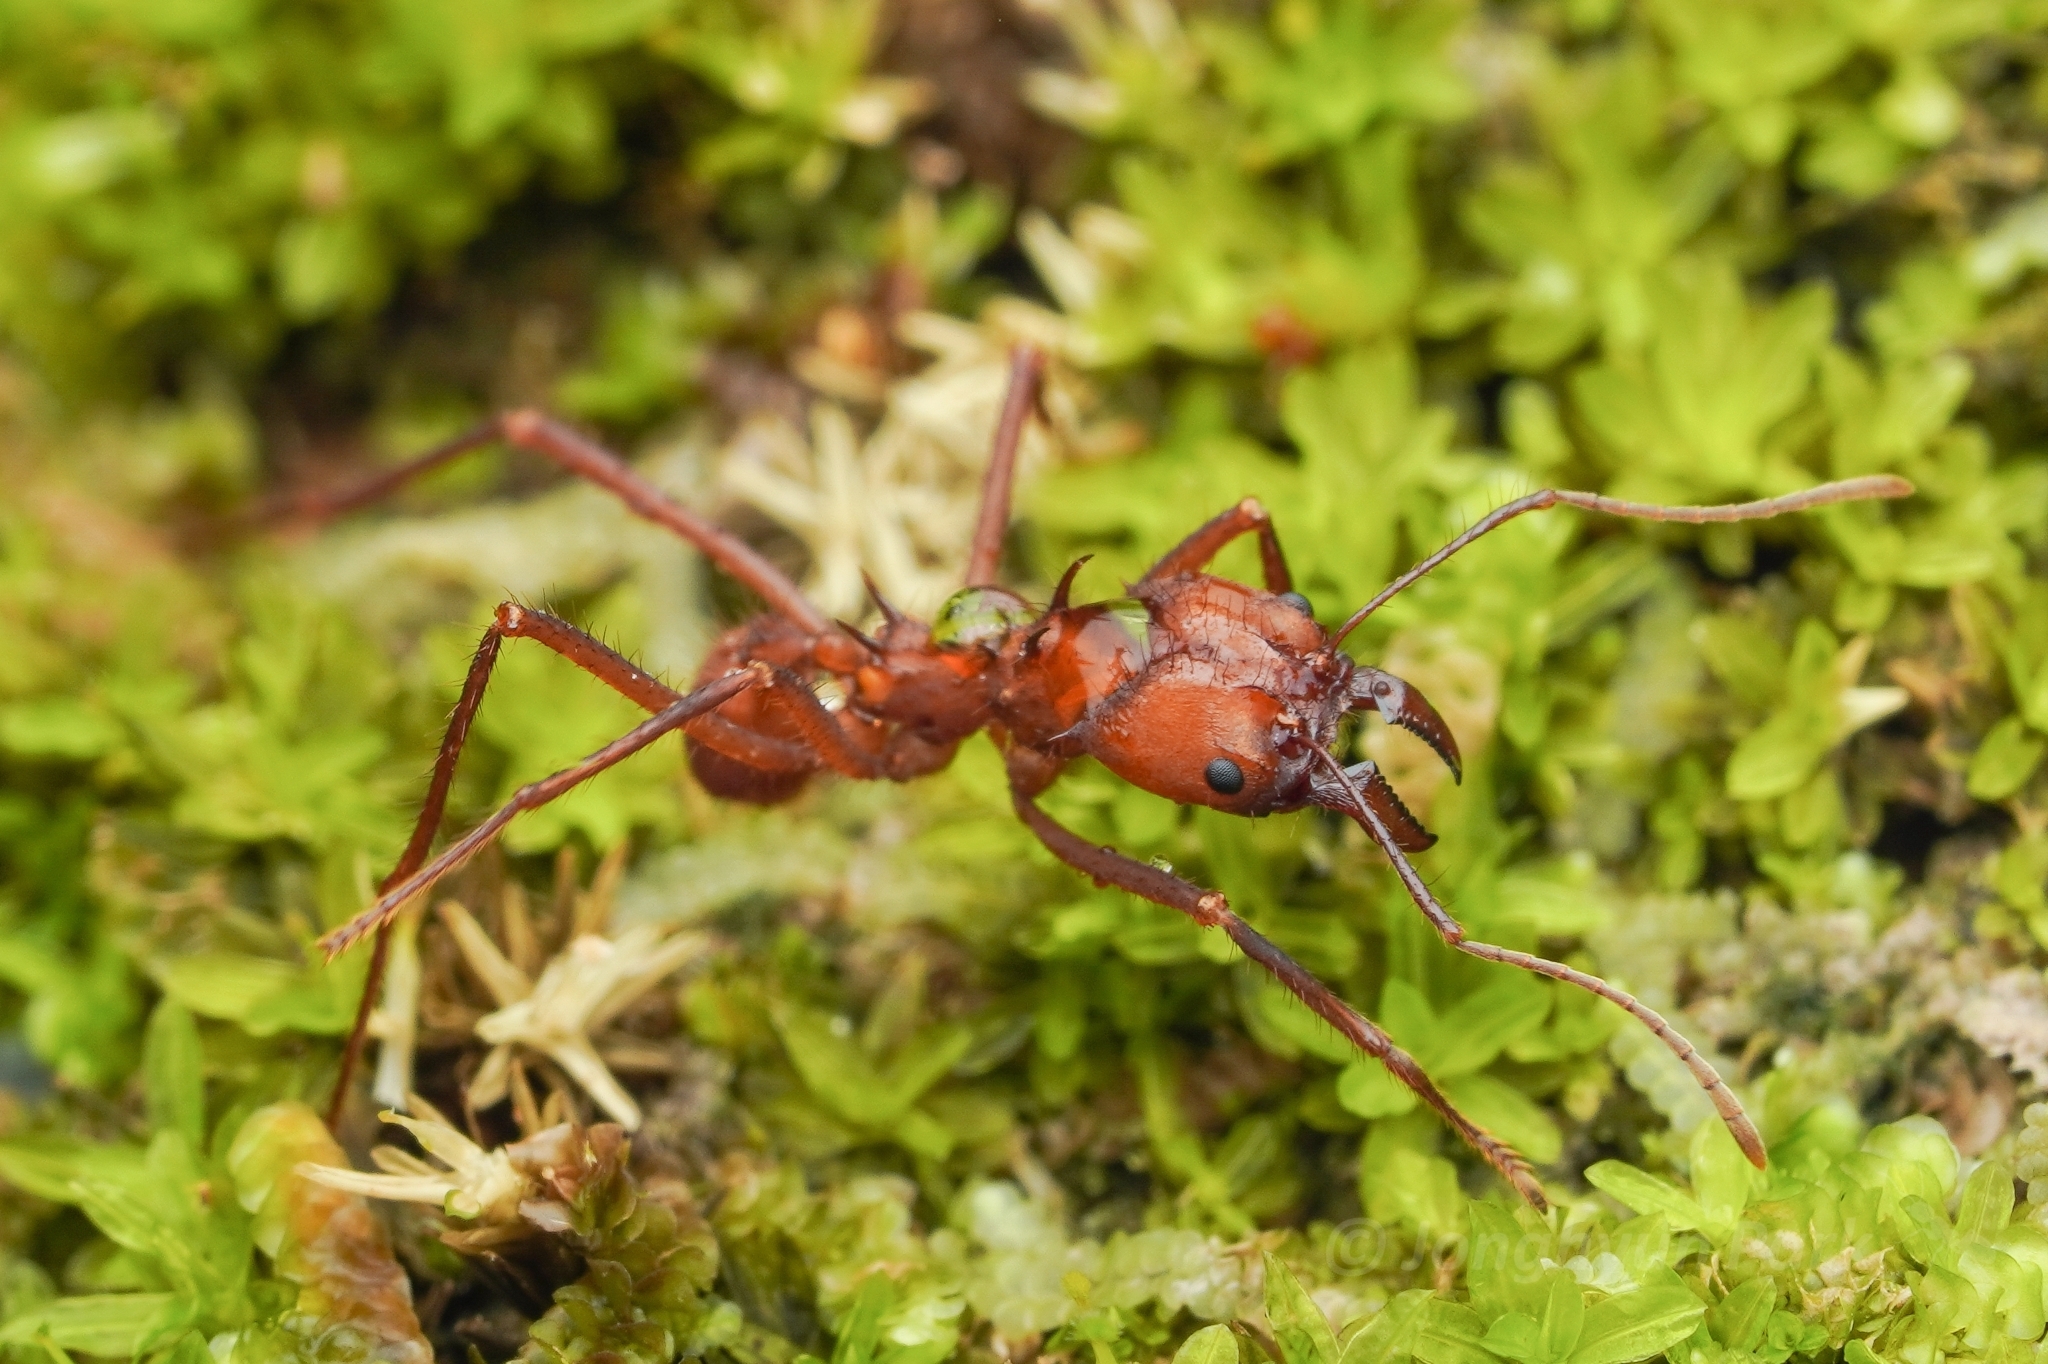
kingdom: Animalia
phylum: Arthropoda
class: Insecta
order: Hymenoptera
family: Formicidae
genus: Atta
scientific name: Atta cephalotes
